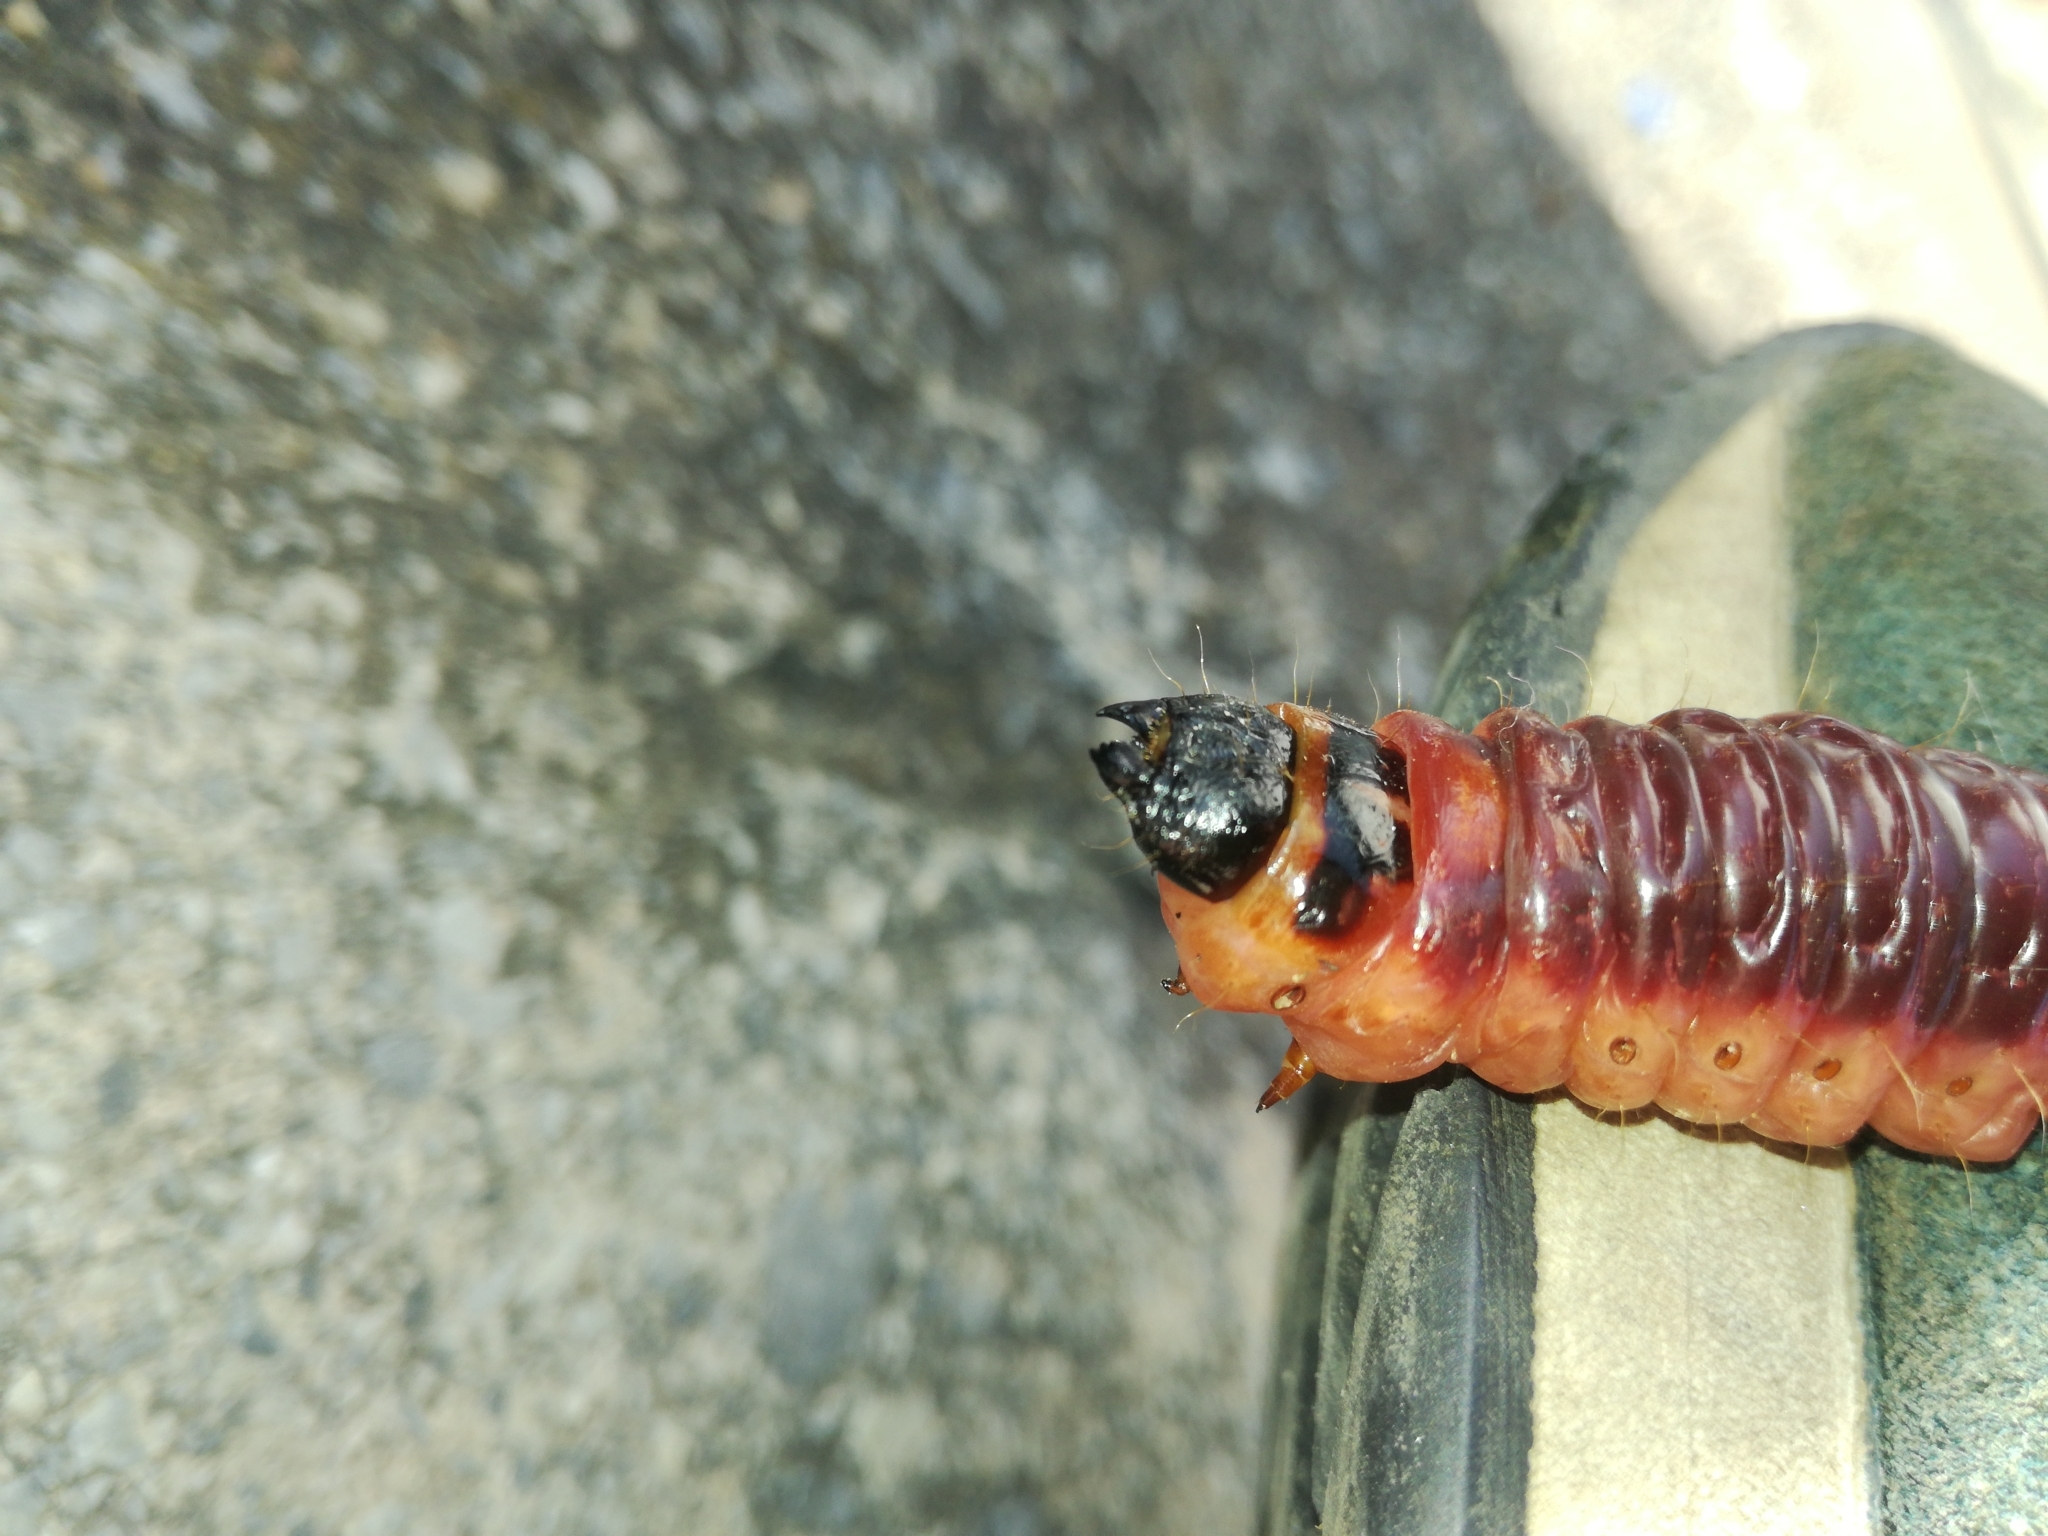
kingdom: Animalia
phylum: Arthropoda
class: Insecta
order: Lepidoptera
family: Cossidae
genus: Cossus
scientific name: Cossus cossus
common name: Goat moth
